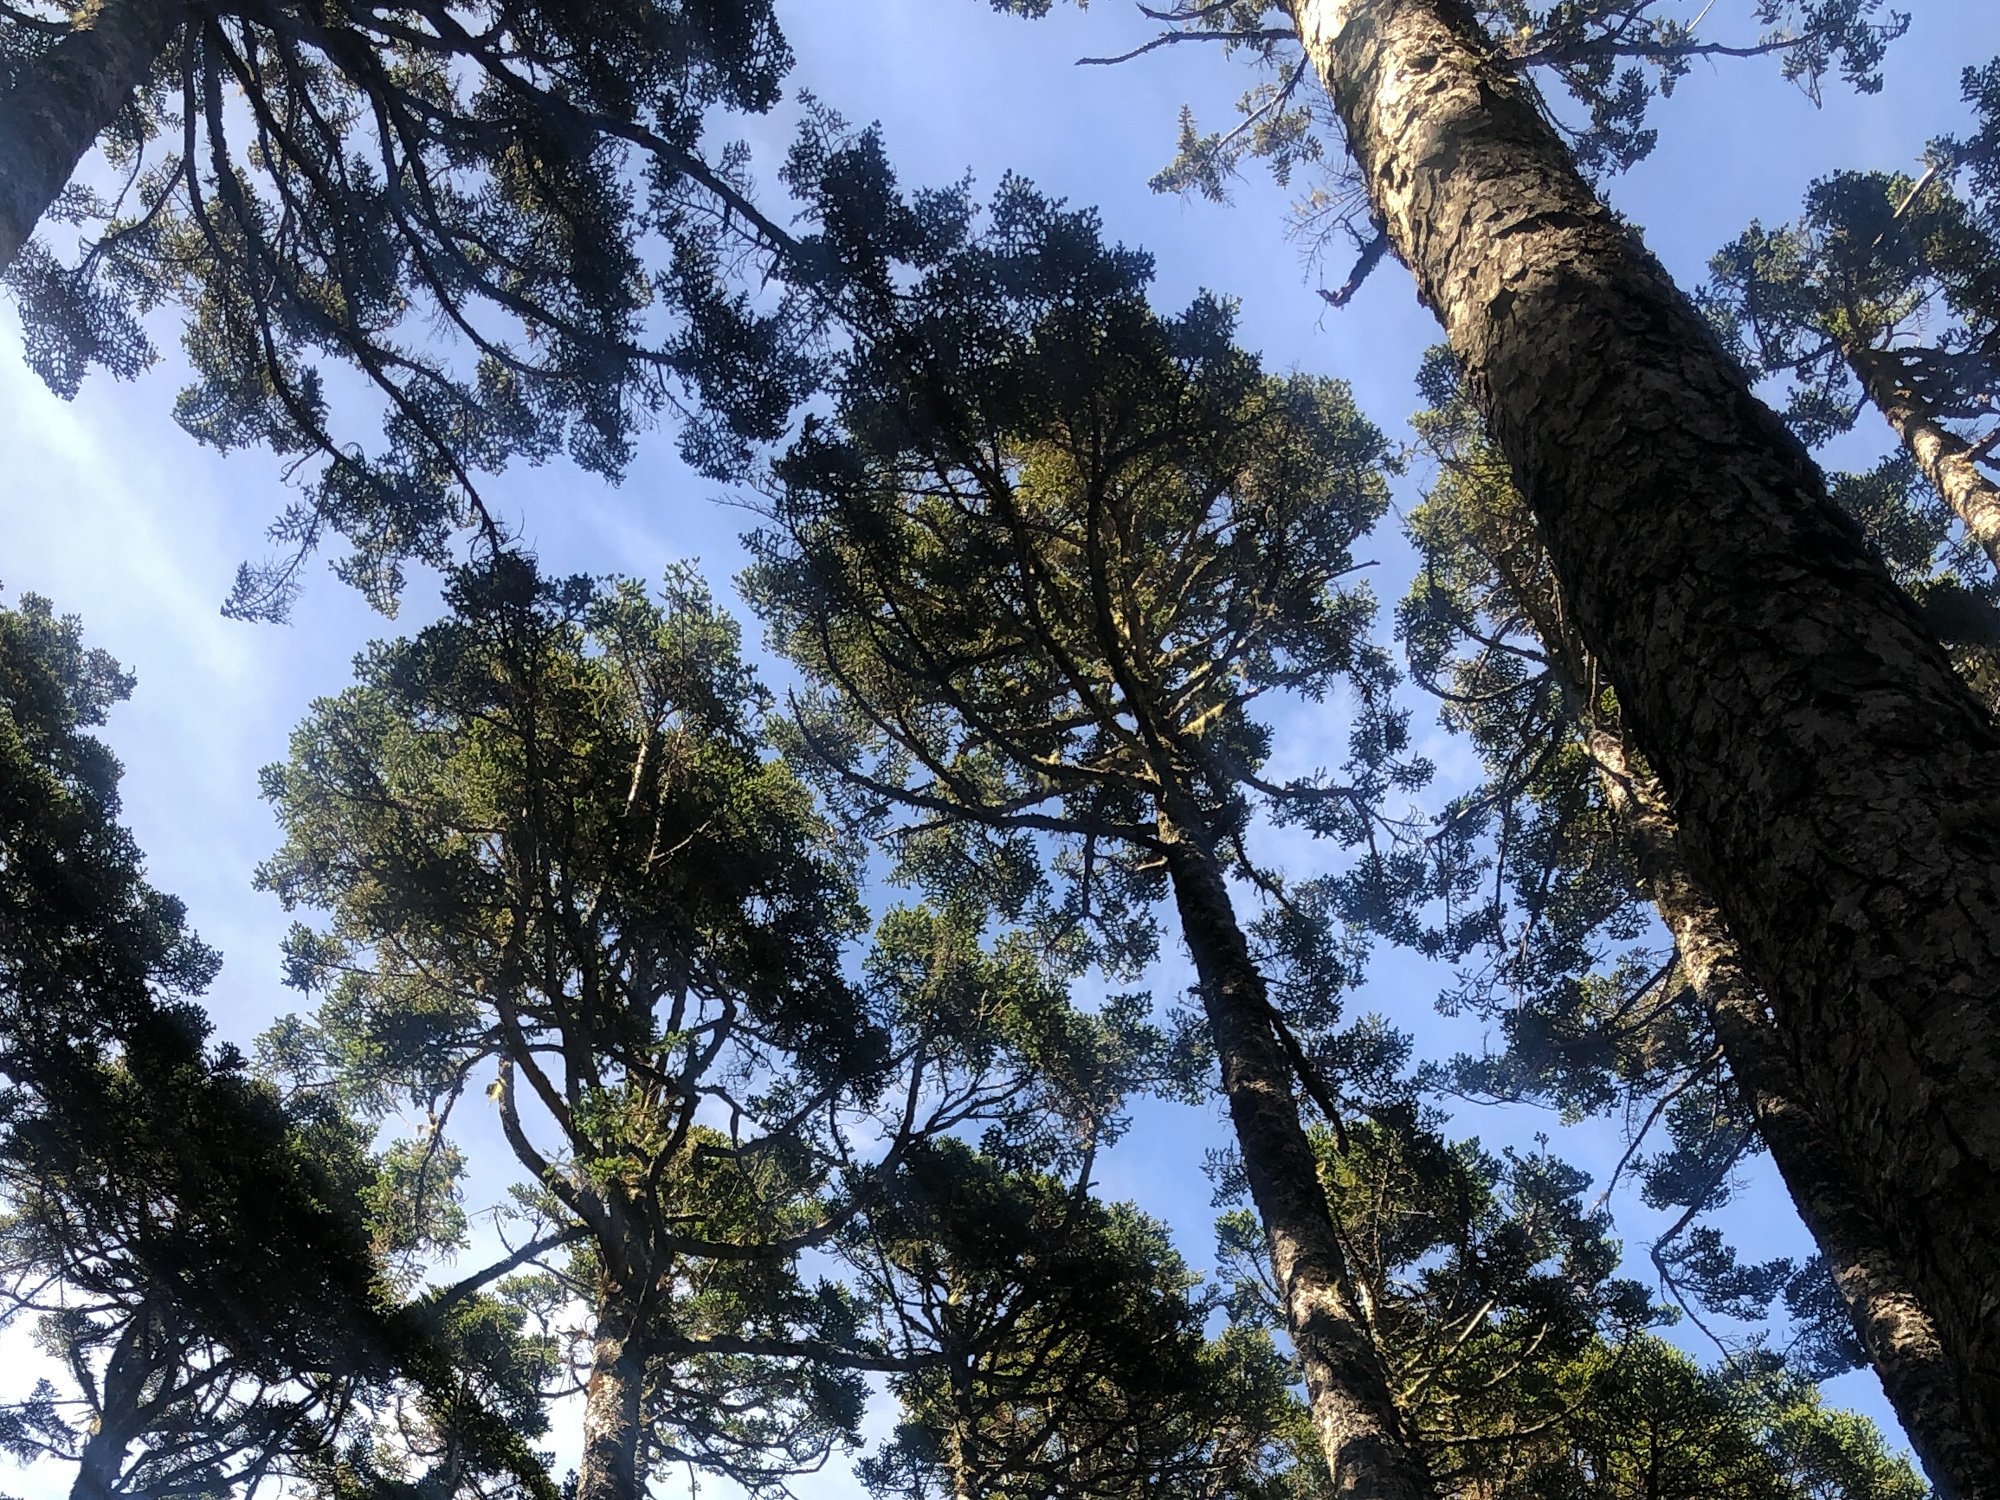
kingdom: Plantae
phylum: Tracheophyta
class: Pinopsida
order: Pinales
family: Pinaceae
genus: Abies
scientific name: Abies kawakamii
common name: Taiwan fir
